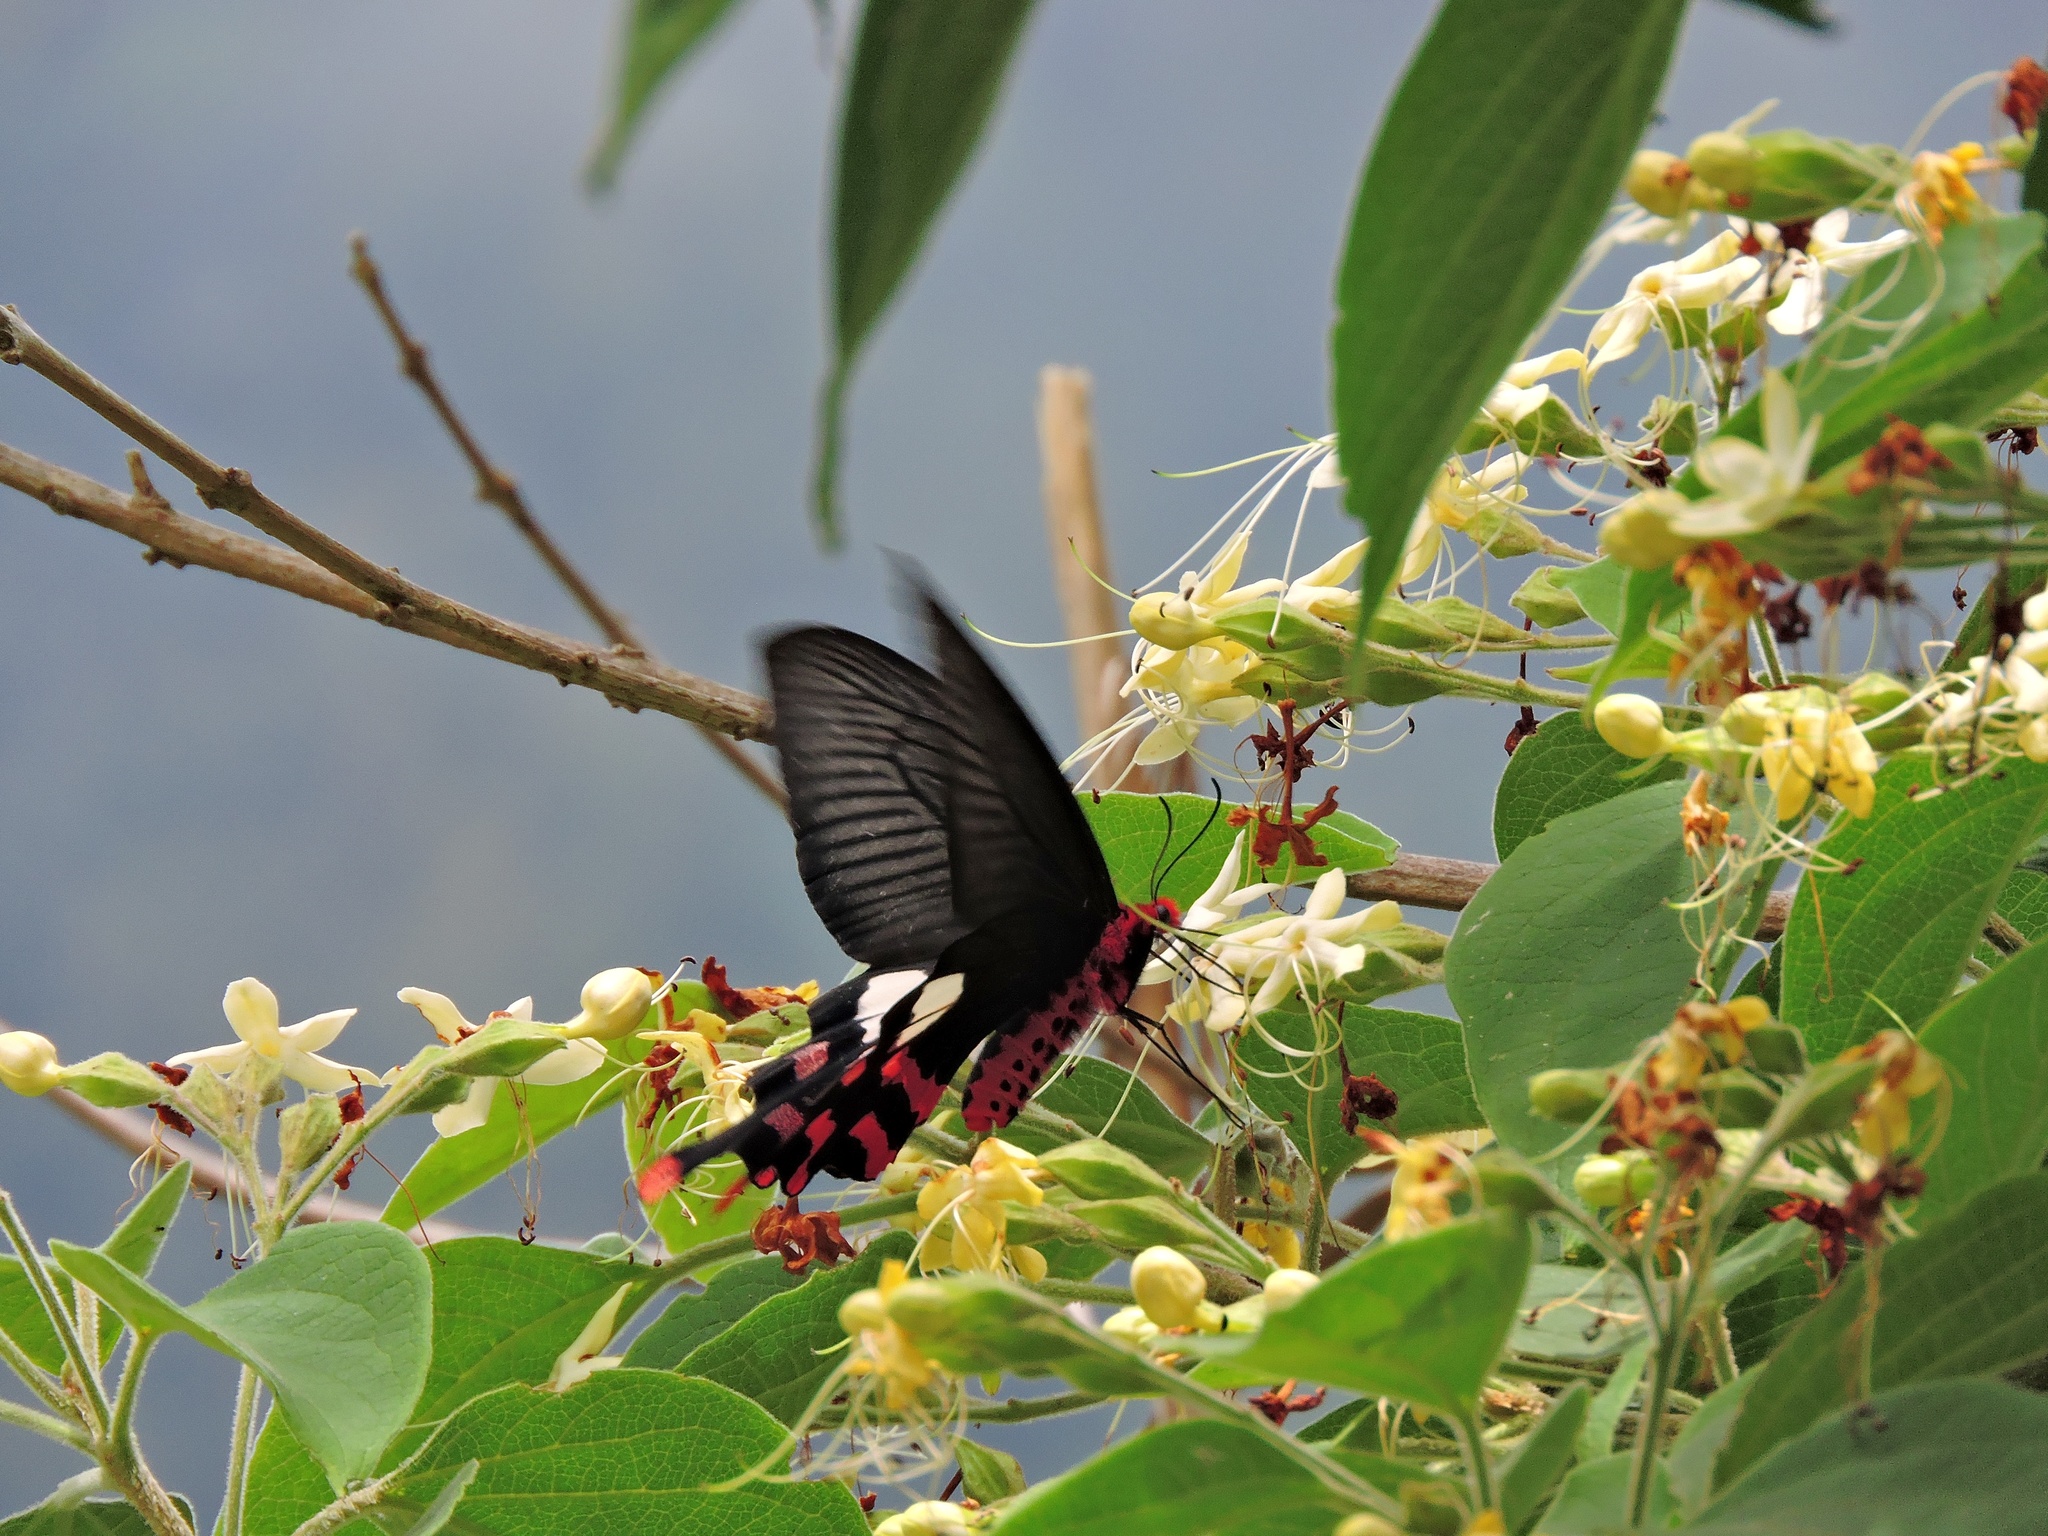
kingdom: Animalia
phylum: Arthropoda
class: Insecta
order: Lepidoptera
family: Papilionidae
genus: Byasa
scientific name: Byasa polyeuctes
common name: Common windmill
